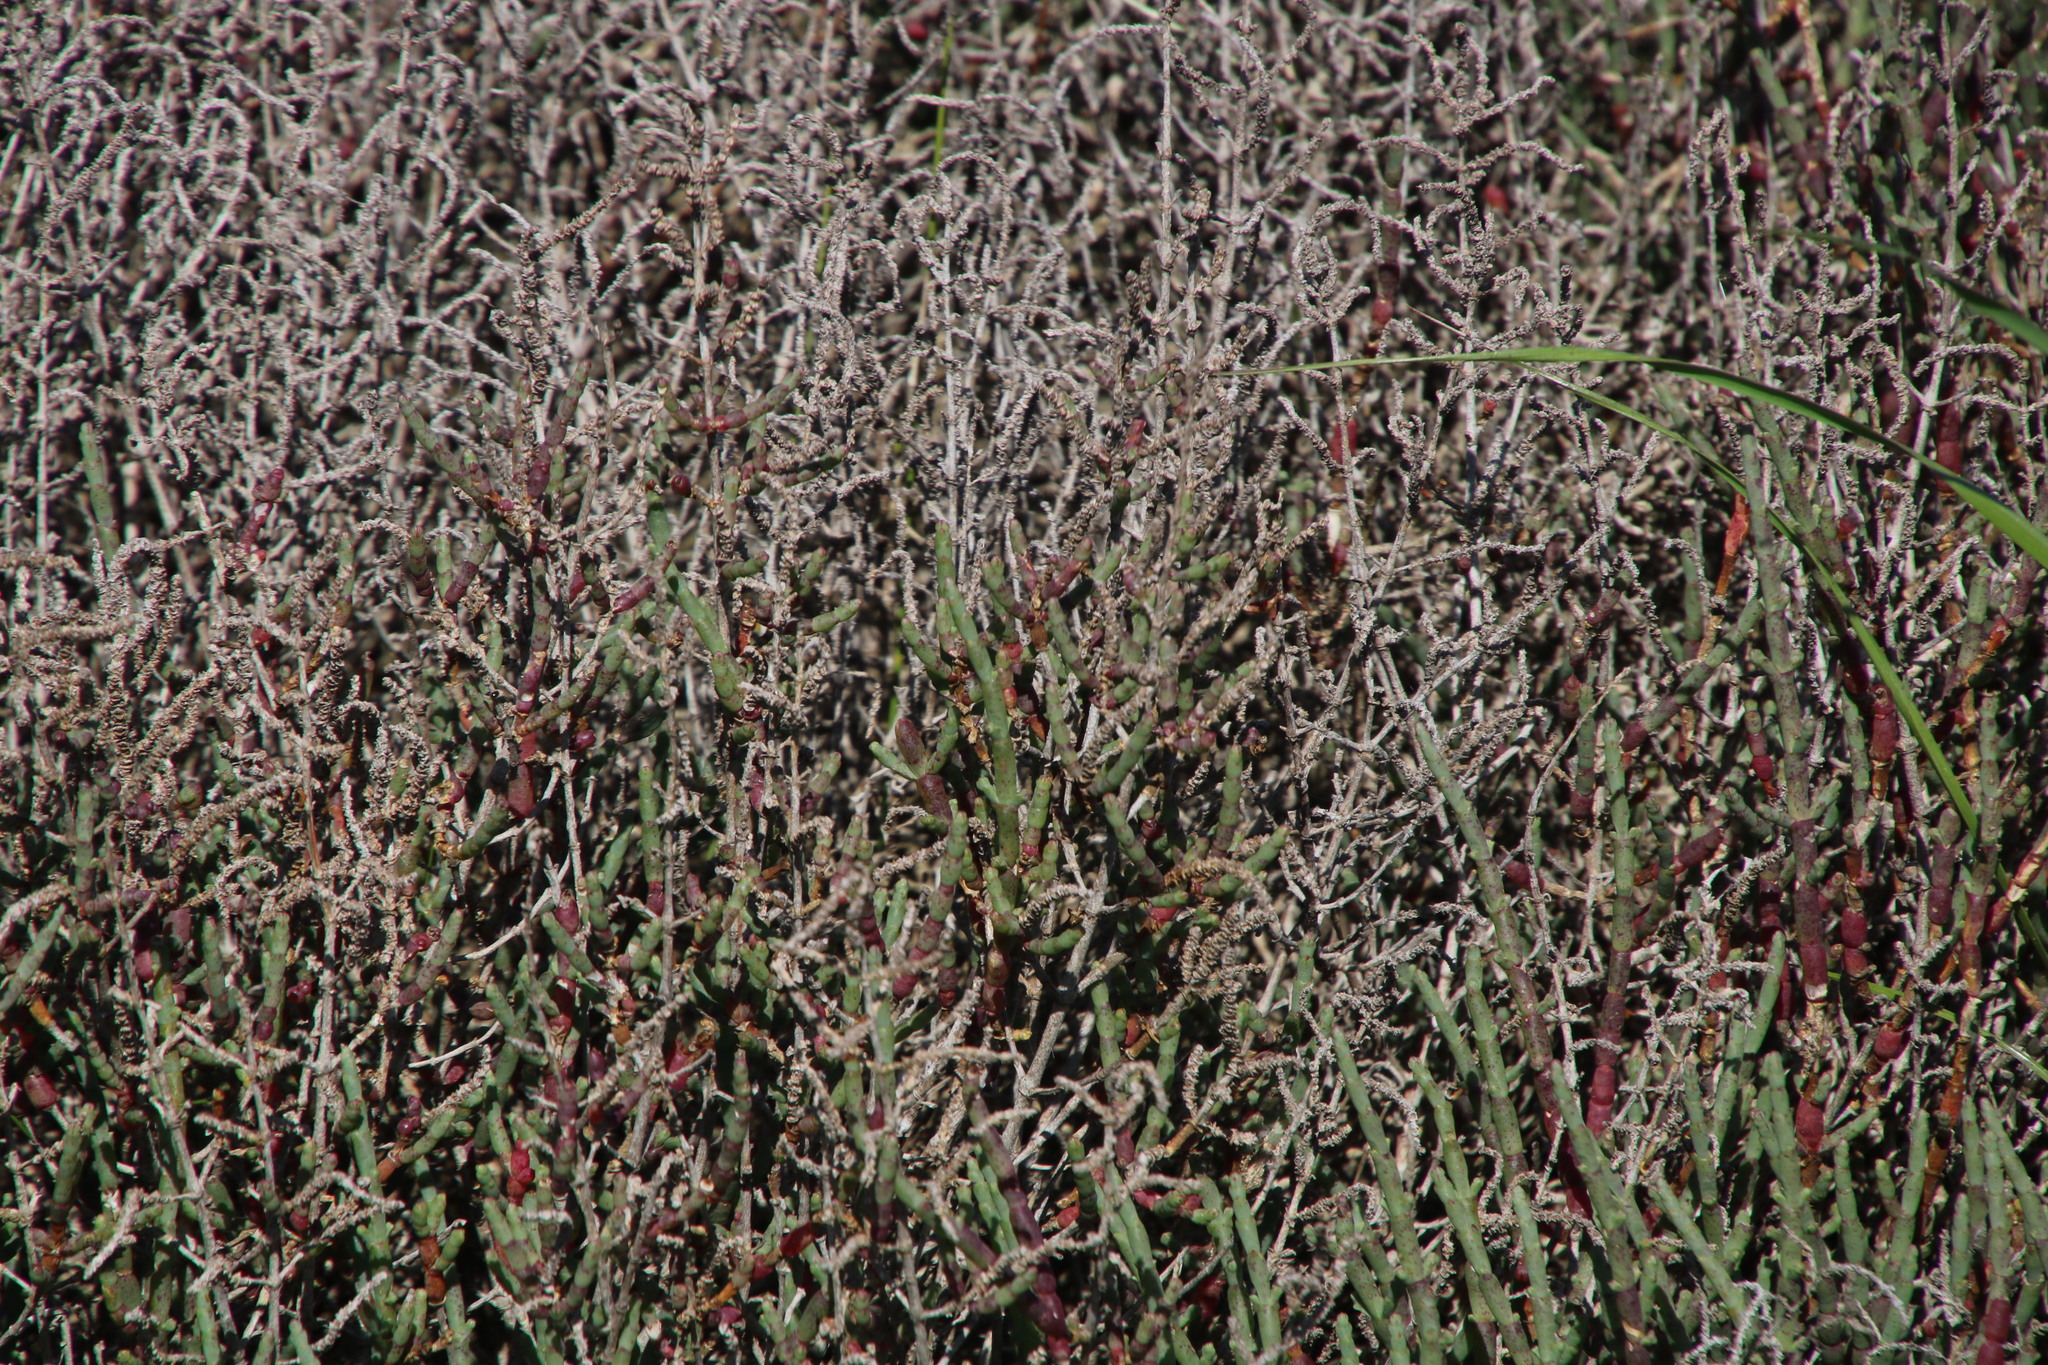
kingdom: Plantae
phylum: Tracheophyta
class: Magnoliopsida
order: Caryophyllales
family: Amaranthaceae
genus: Salicornia
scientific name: Salicornia pillansii
